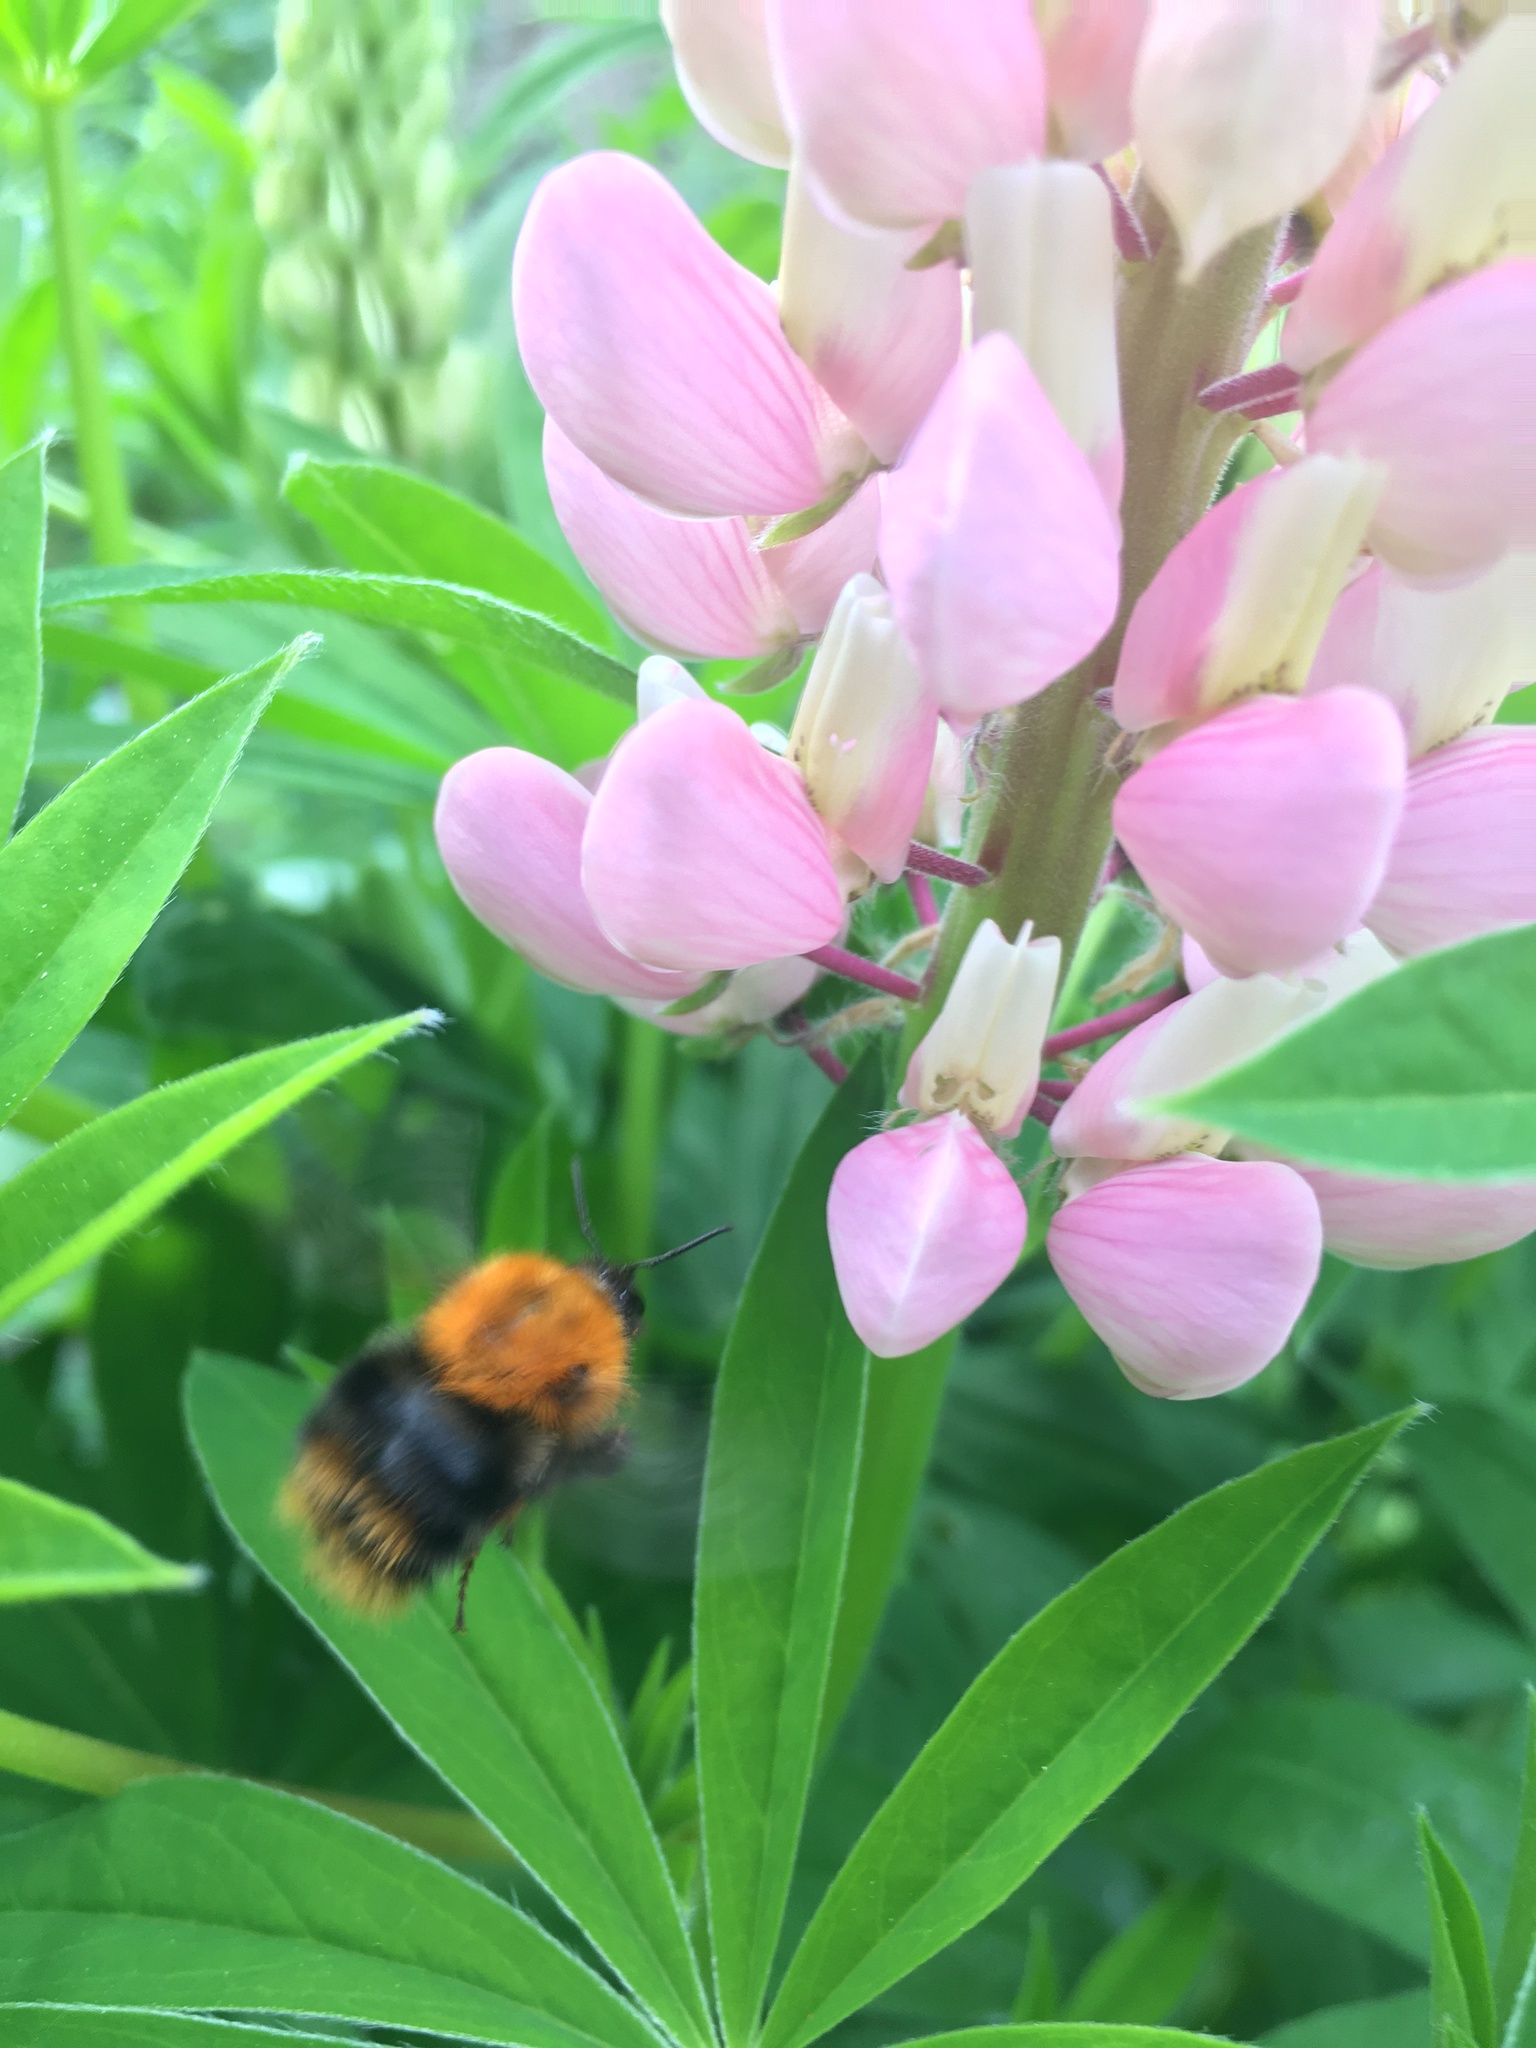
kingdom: Animalia
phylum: Arthropoda
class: Insecta
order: Hymenoptera
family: Apidae
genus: Bombus
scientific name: Bombus pascuorum
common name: Common carder bee
